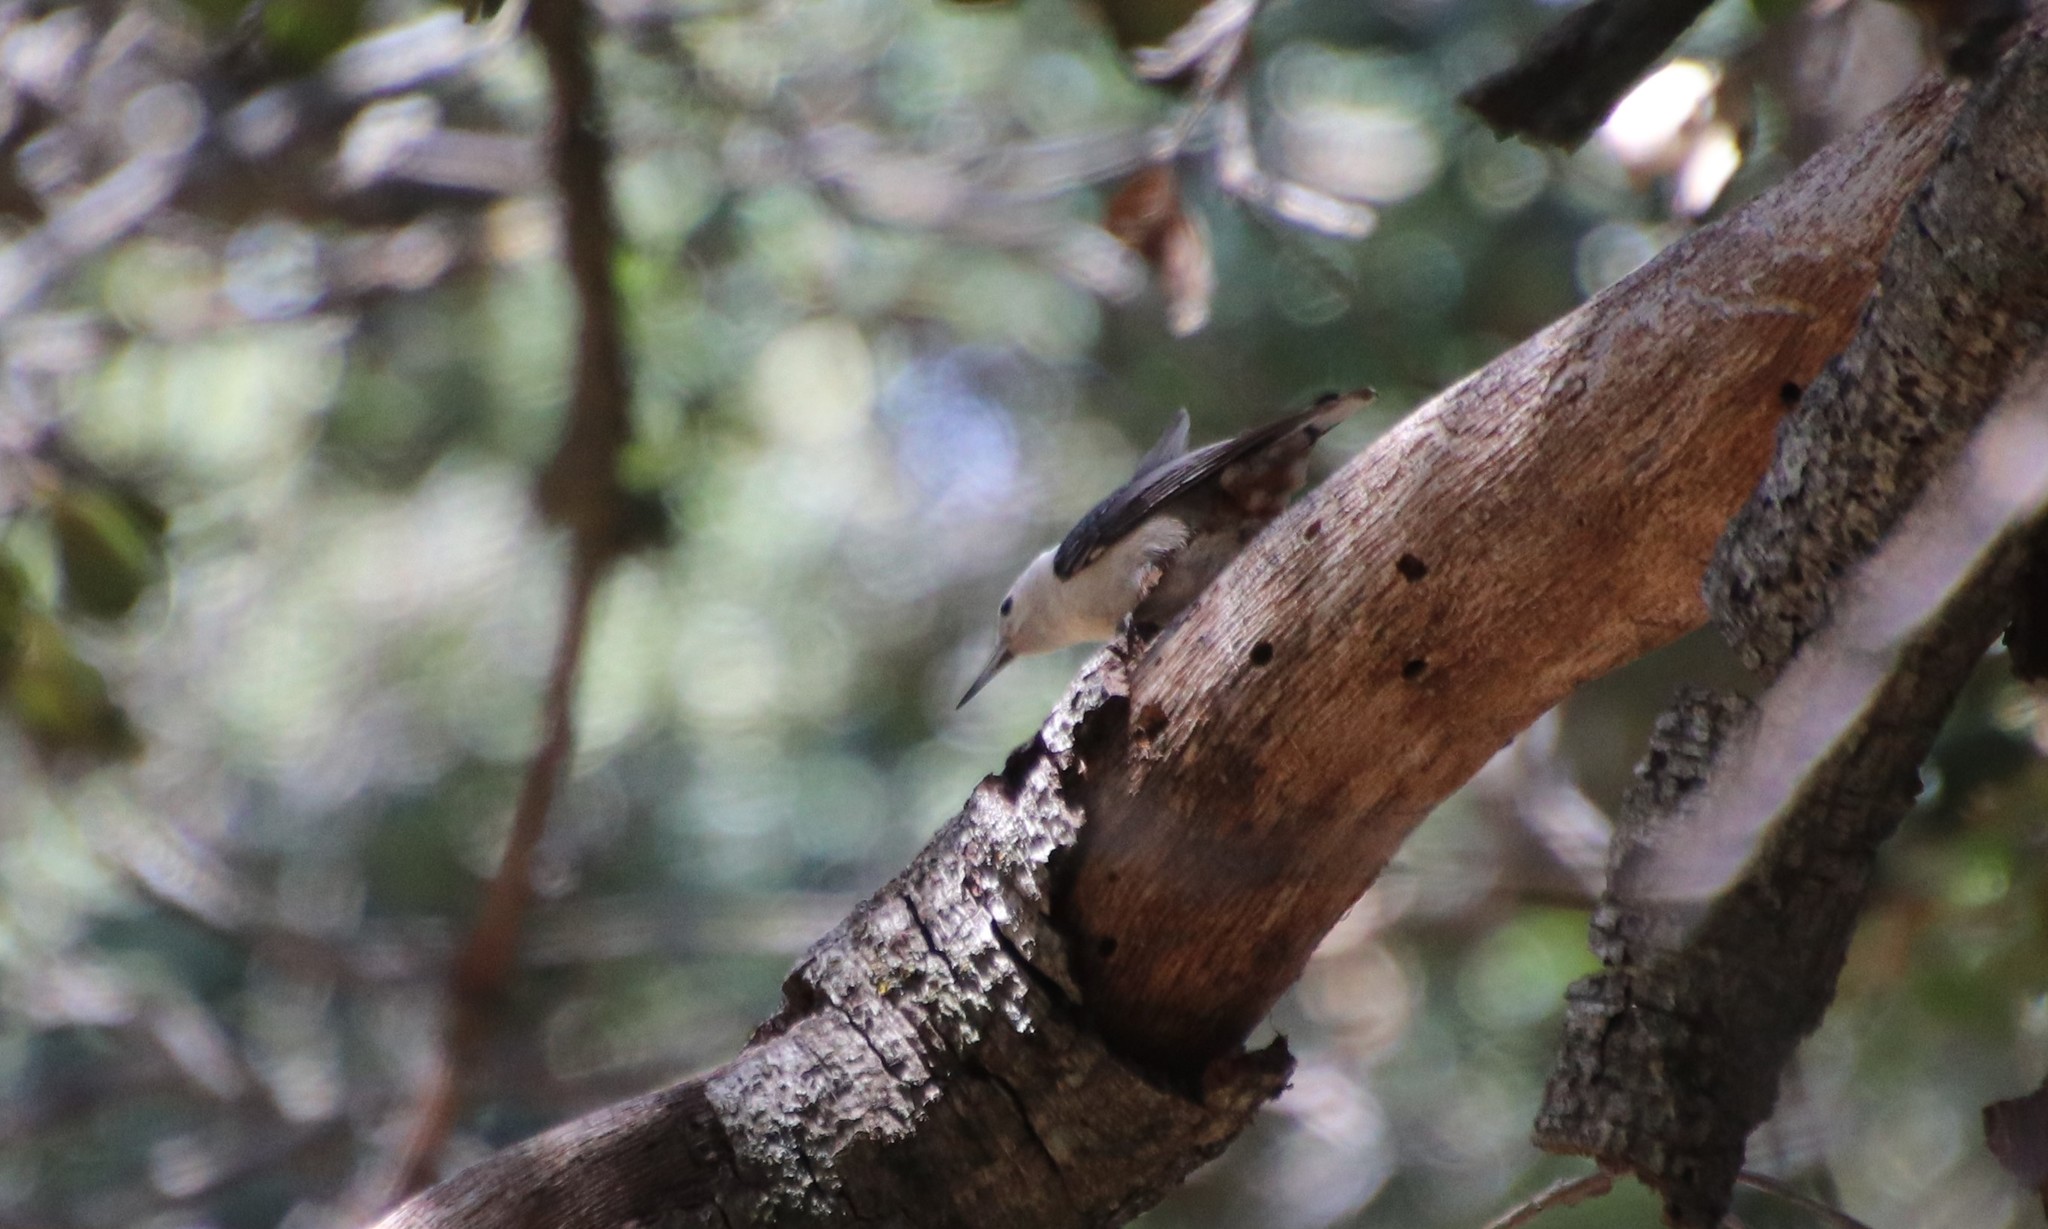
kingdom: Animalia
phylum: Chordata
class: Aves
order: Passeriformes
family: Sittidae
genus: Sitta
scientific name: Sitta carolinensis
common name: White-breasted nuthatch
